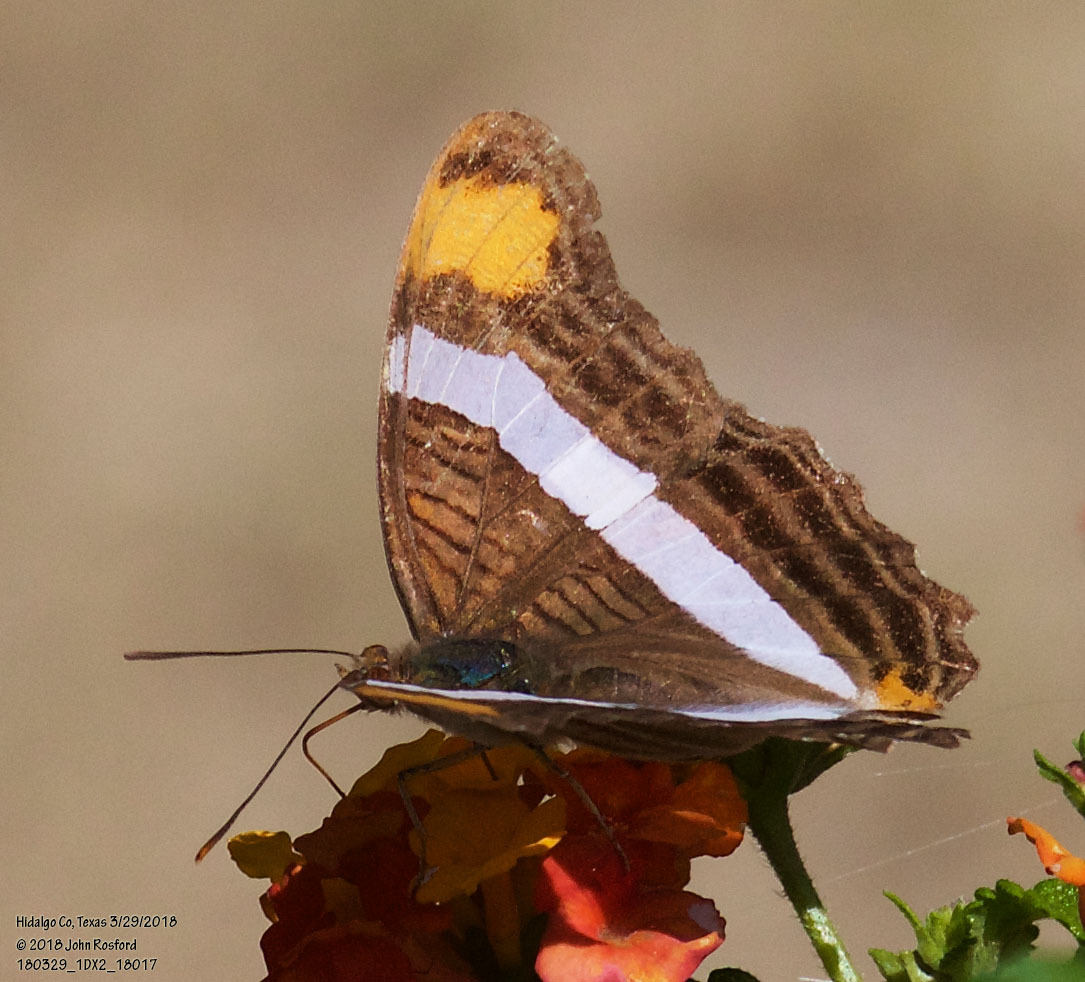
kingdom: Animalia
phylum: Arthropoda
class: Insecta
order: Lepidoptera
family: Nymphalidae
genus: Limenitis
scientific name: Limenitis fessonia
